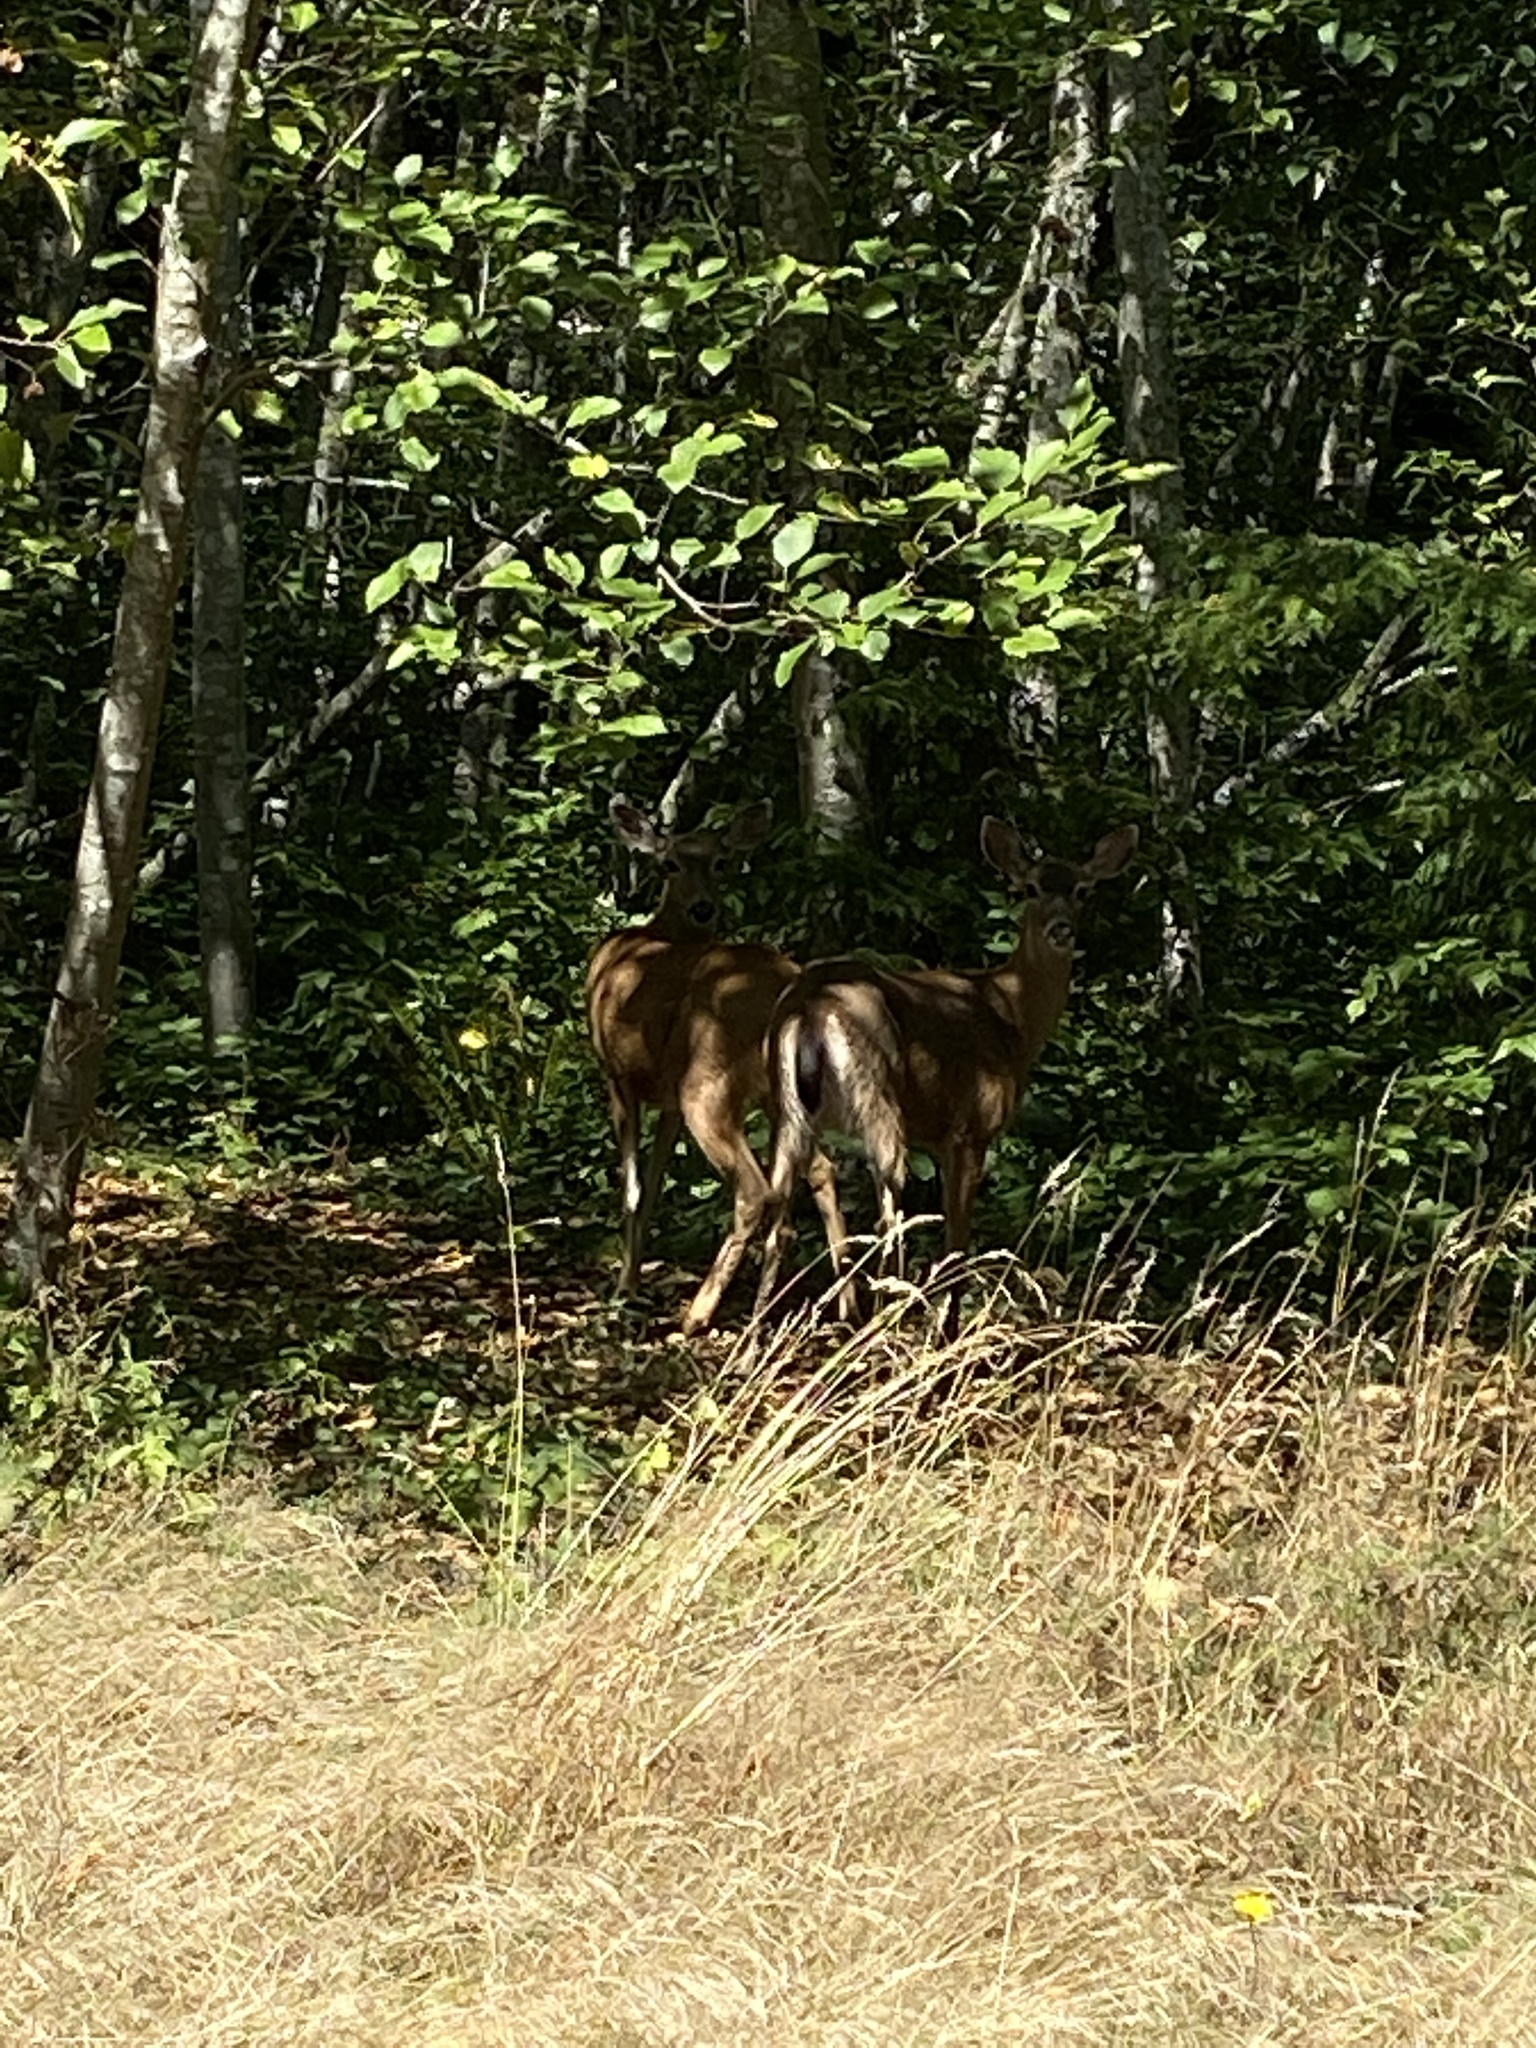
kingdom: Animalia
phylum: Chordata
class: Mammalia
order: Artiodactyla
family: Cervidae
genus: Odocoileus
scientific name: Odocoileus hemionus
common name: Mule deer
